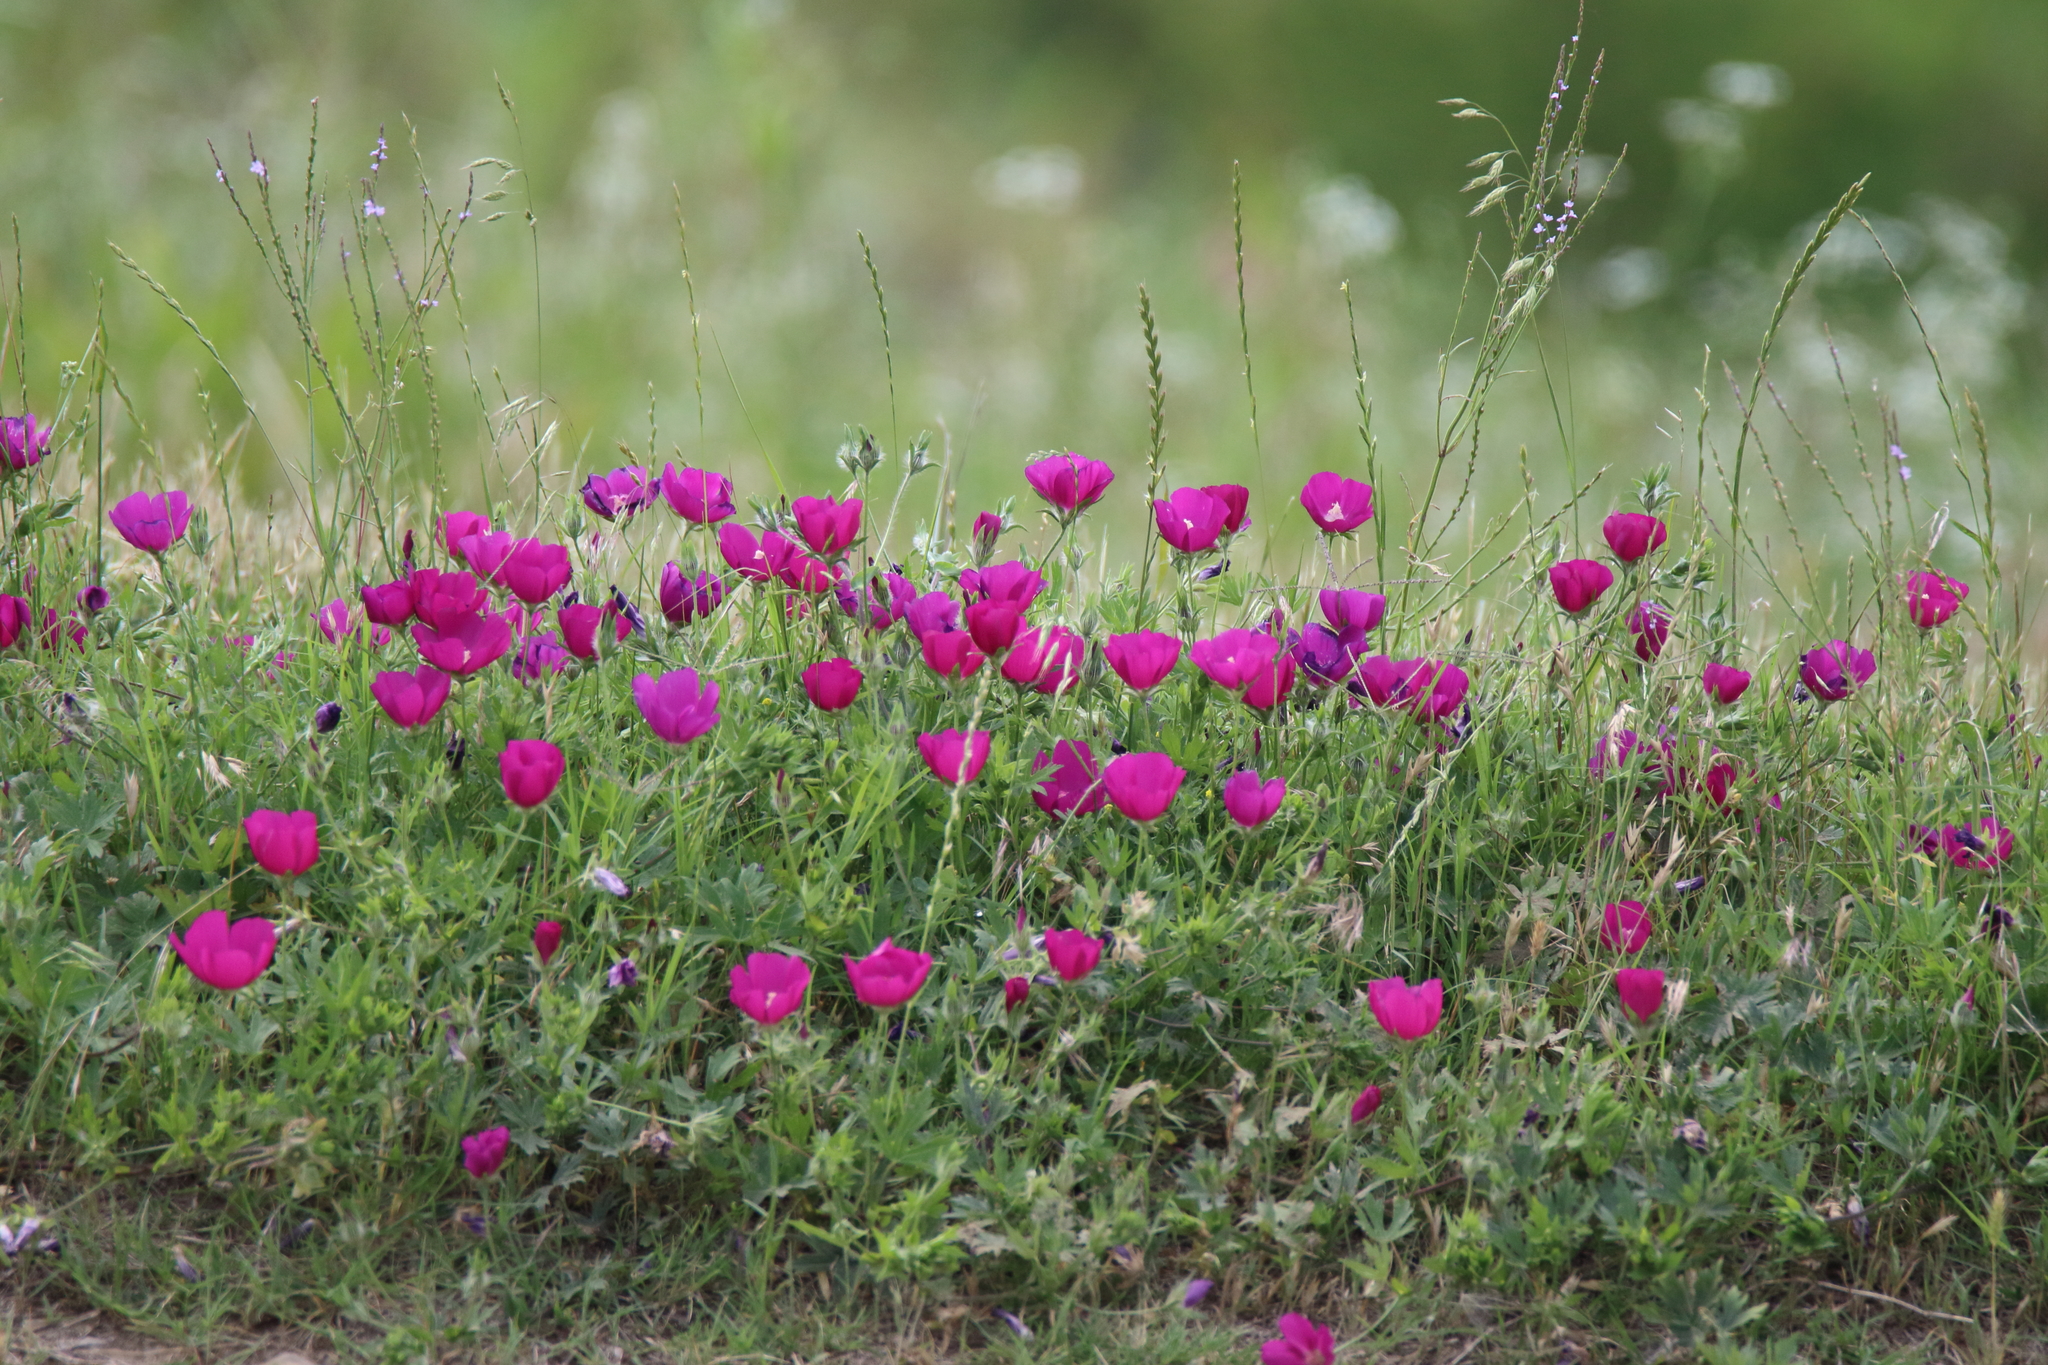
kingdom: Plantae
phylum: Tracheophyta
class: Magnoliopsida
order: Malvales
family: Malvaceae
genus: Callirhoe
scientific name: Callirhoe involucrata
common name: Purple poppy-mallow
